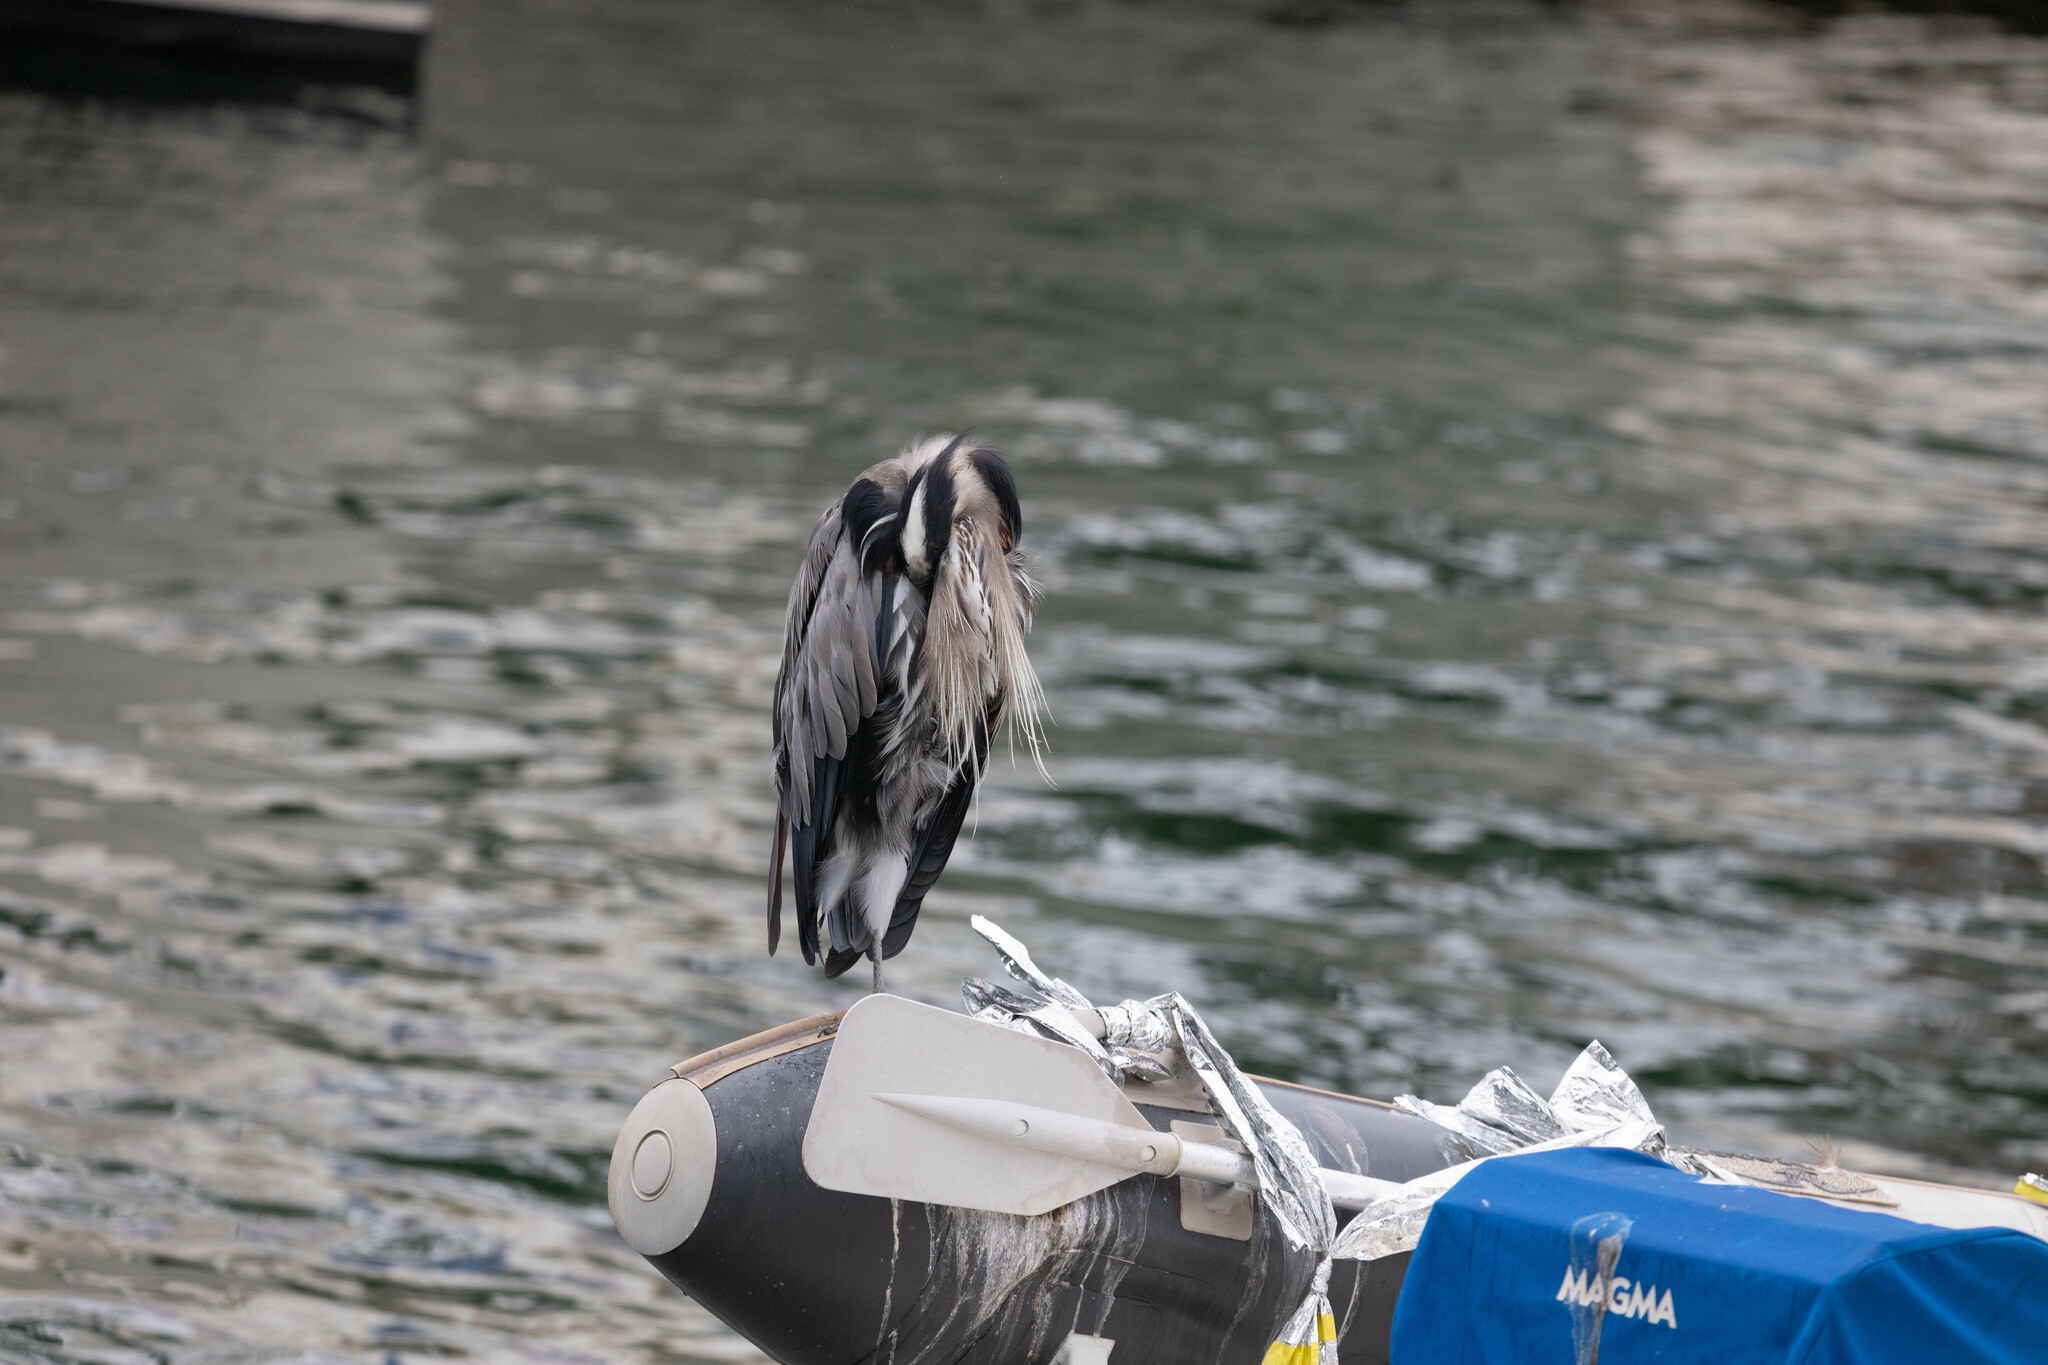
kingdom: Animalia
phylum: Chordata
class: Aves
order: Pelecaniformes
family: Ardeidae
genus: Ardea
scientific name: Ardea herodias
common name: Great blue heron
